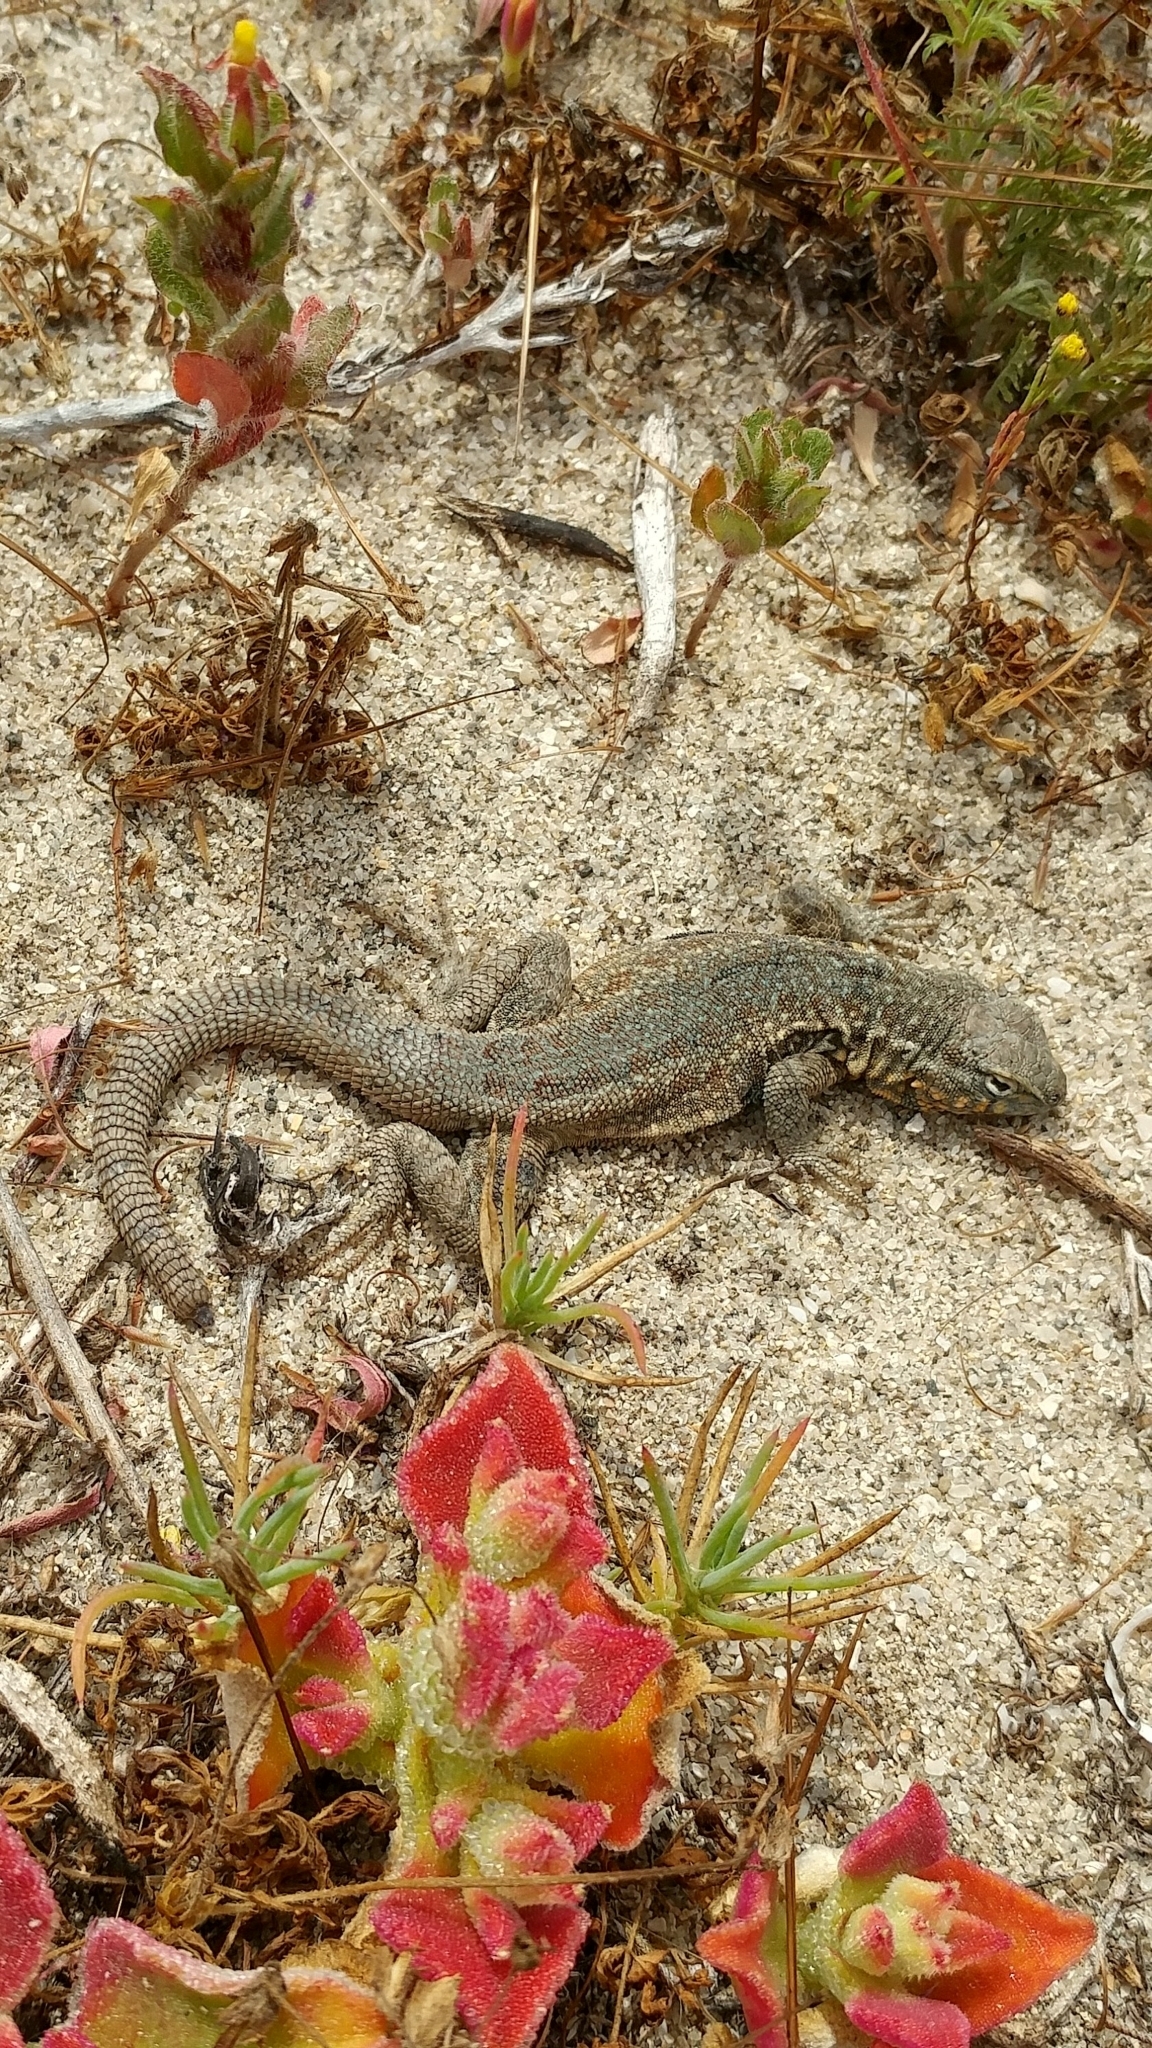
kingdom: Animalia
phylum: Chordata
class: Squamata
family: Phrynosomatidae
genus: Uta
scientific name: Uta stansburiana
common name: Side-blotched lizard
